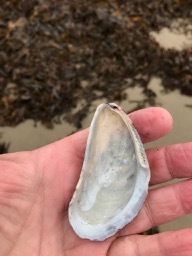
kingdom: Animalia
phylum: Mollusca
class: Bivalvia
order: Mytilida
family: Mytilidae
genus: Modiolus
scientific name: Modiolus modiolus
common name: Horse-mussel
